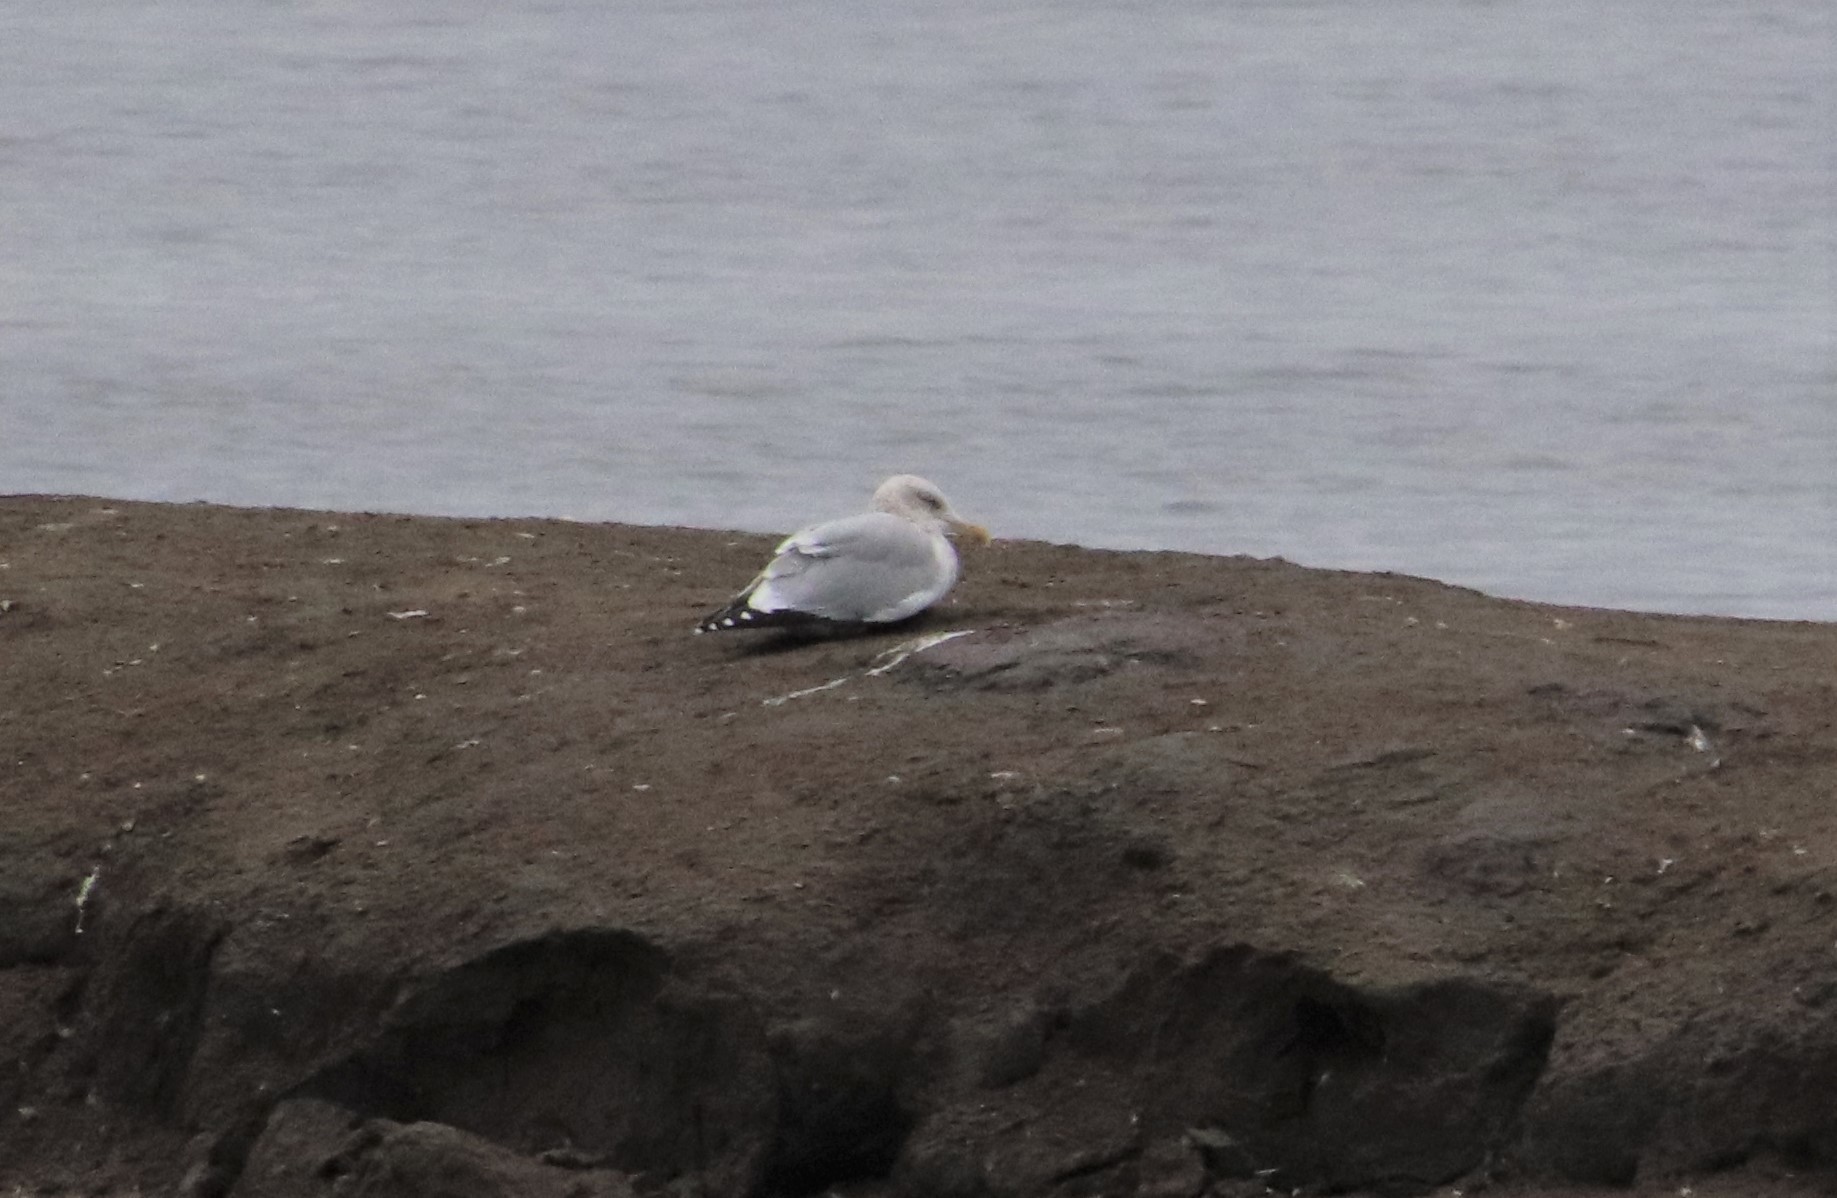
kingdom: Animalia
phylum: Chordata
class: Aves
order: Charadriiformes
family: Laridae
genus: Larus
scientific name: Larus argentatus
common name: Herring gull
